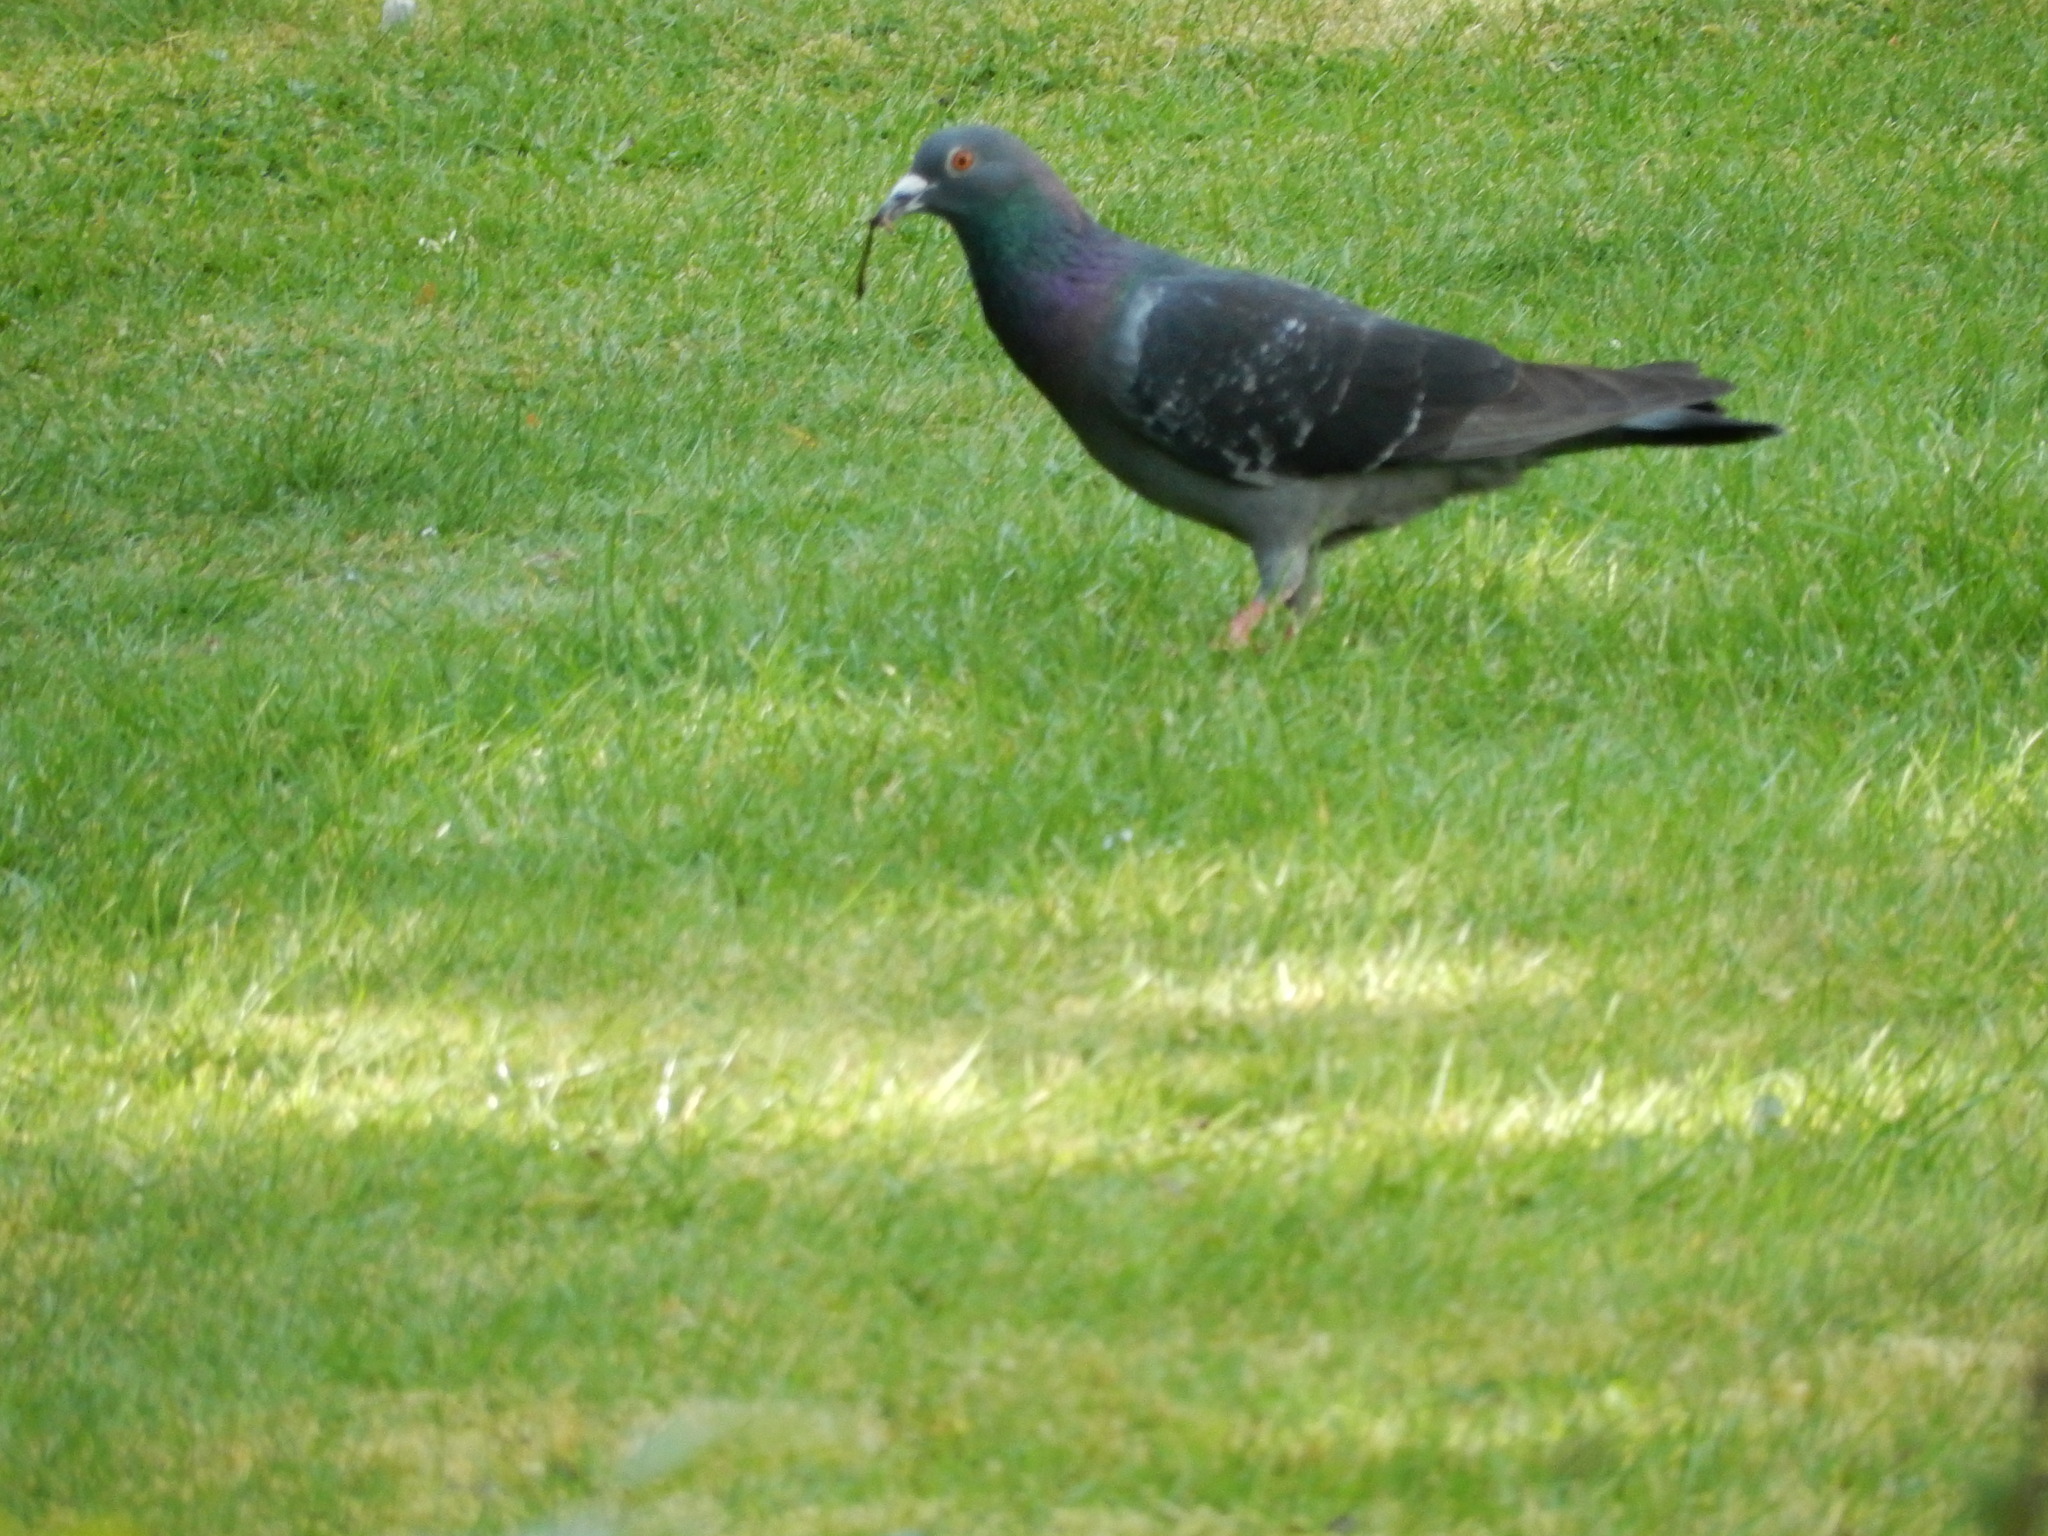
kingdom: Animalia
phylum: Chordata
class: Aves
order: Columbiformes
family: Columbidae
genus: Columba
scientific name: Columba livia
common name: Rock pigeon
